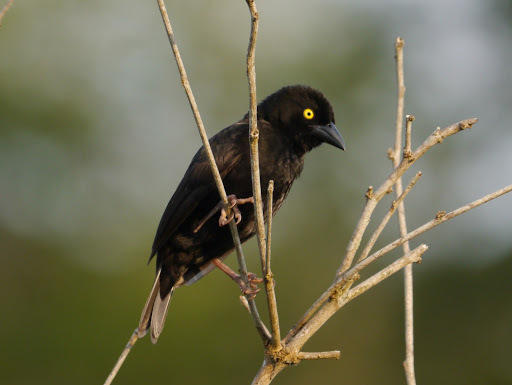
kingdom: Animalia
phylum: Chordata
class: Aves
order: Passeriformes
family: Ploceidae
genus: Ploceus
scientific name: Ploceus nigerrimus
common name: Vieillot's black weaver
